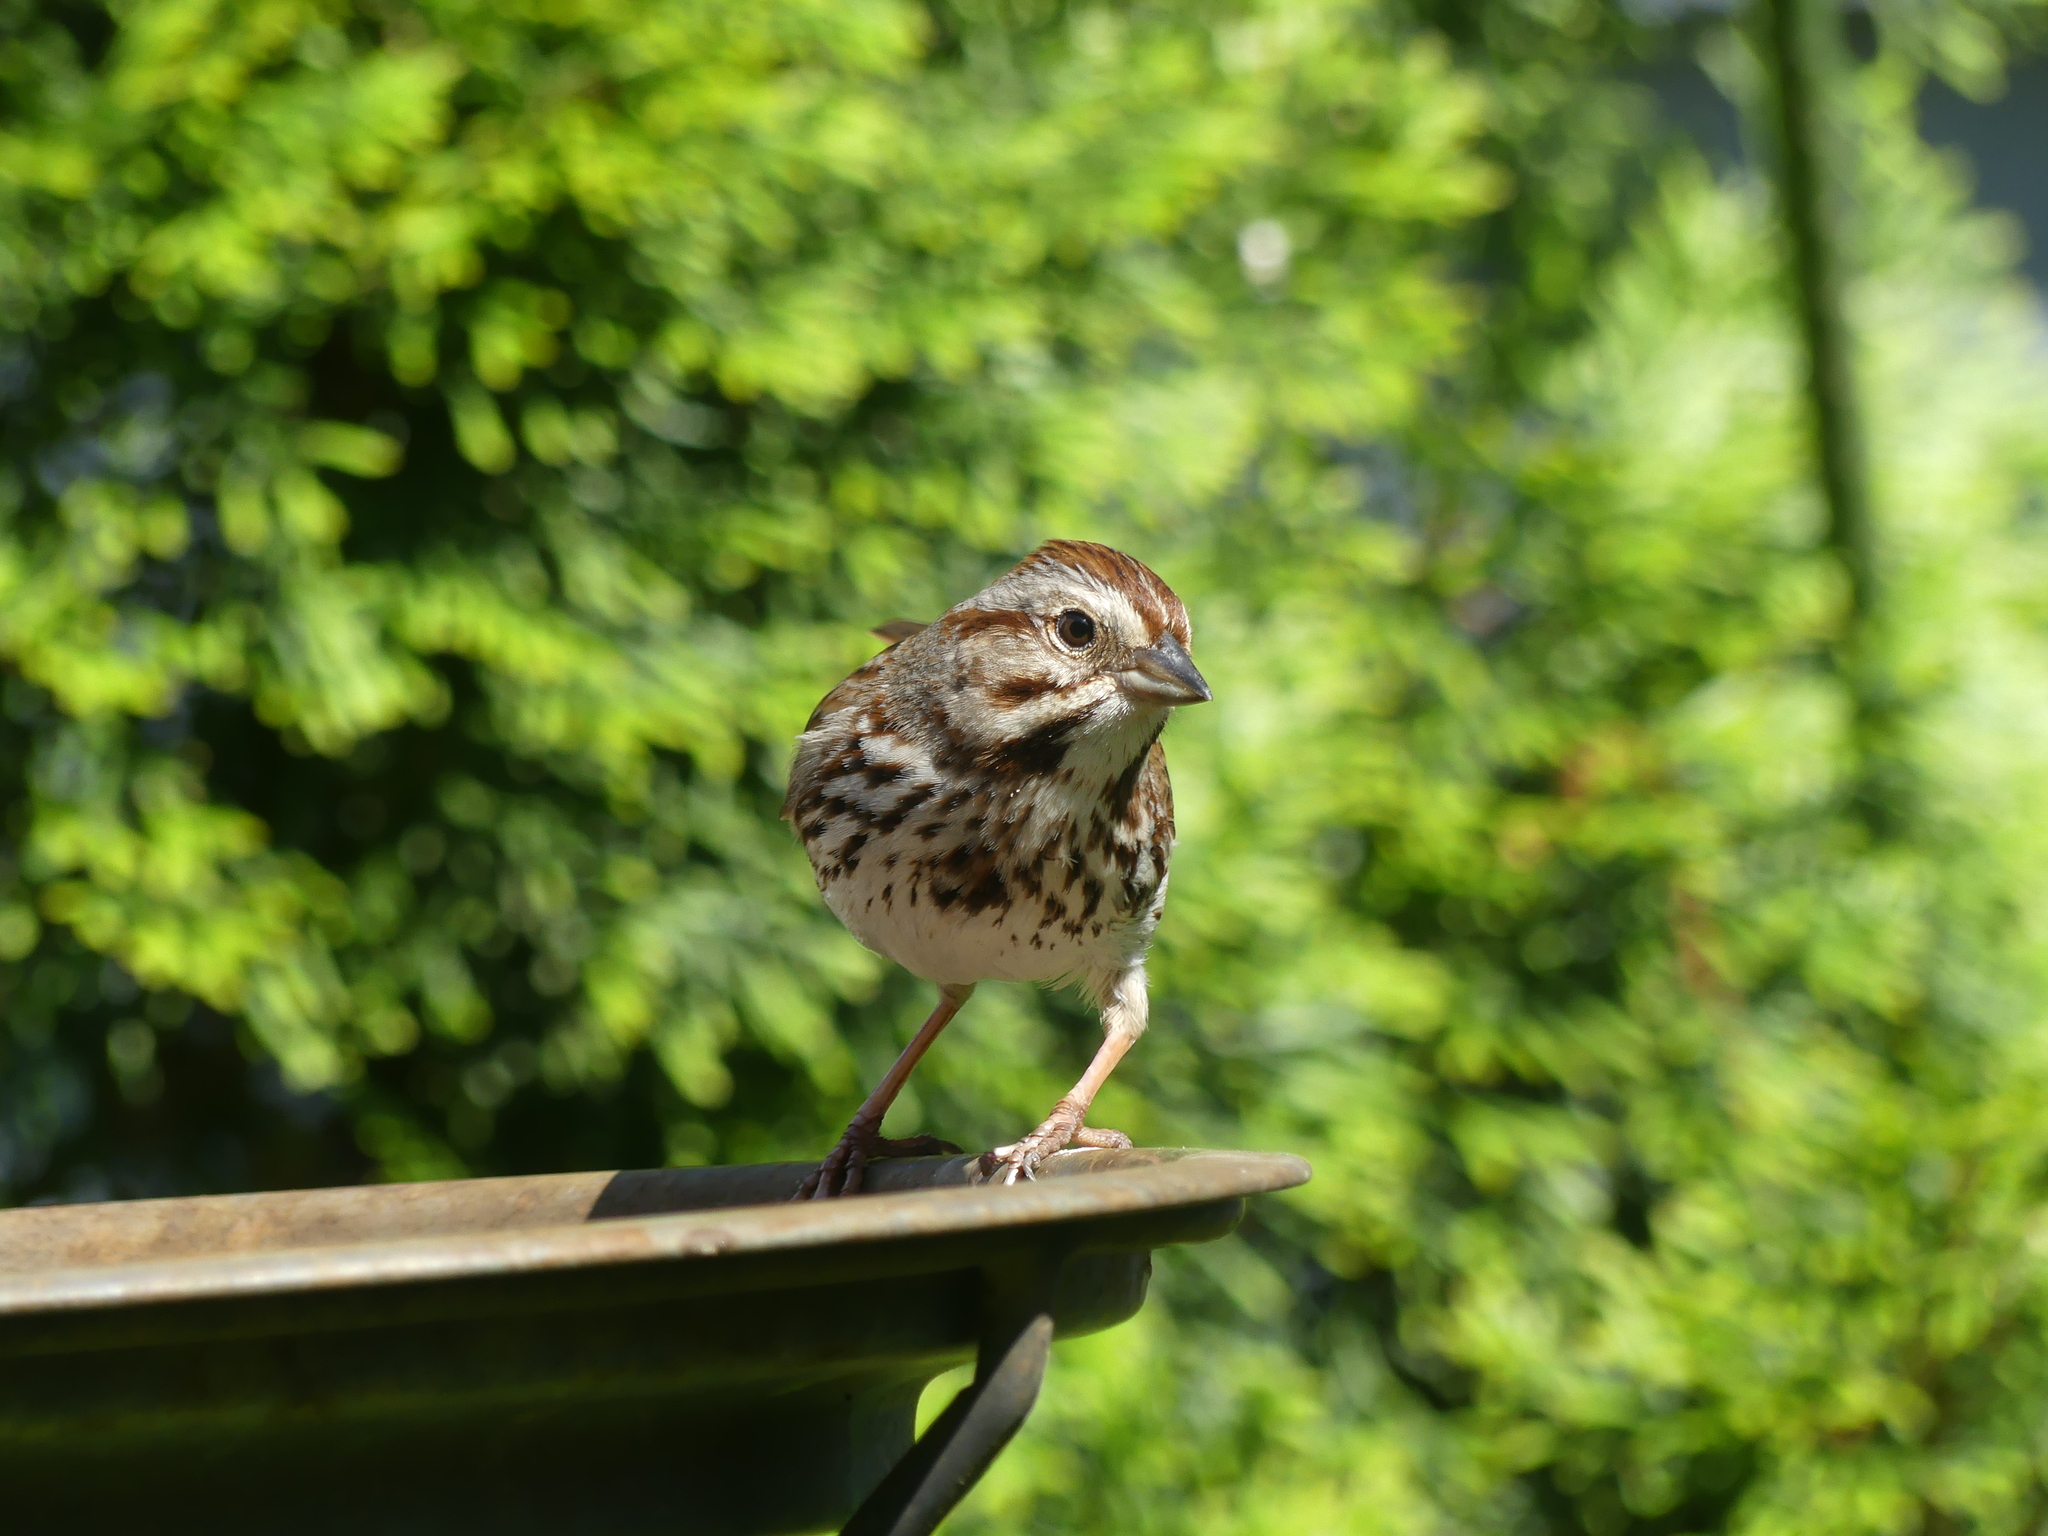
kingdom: Animalia
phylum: Chordata
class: Aves
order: Passeriformes
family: Passerellidae
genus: Melospiza
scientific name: Melospiza melodia
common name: Song sparrow
